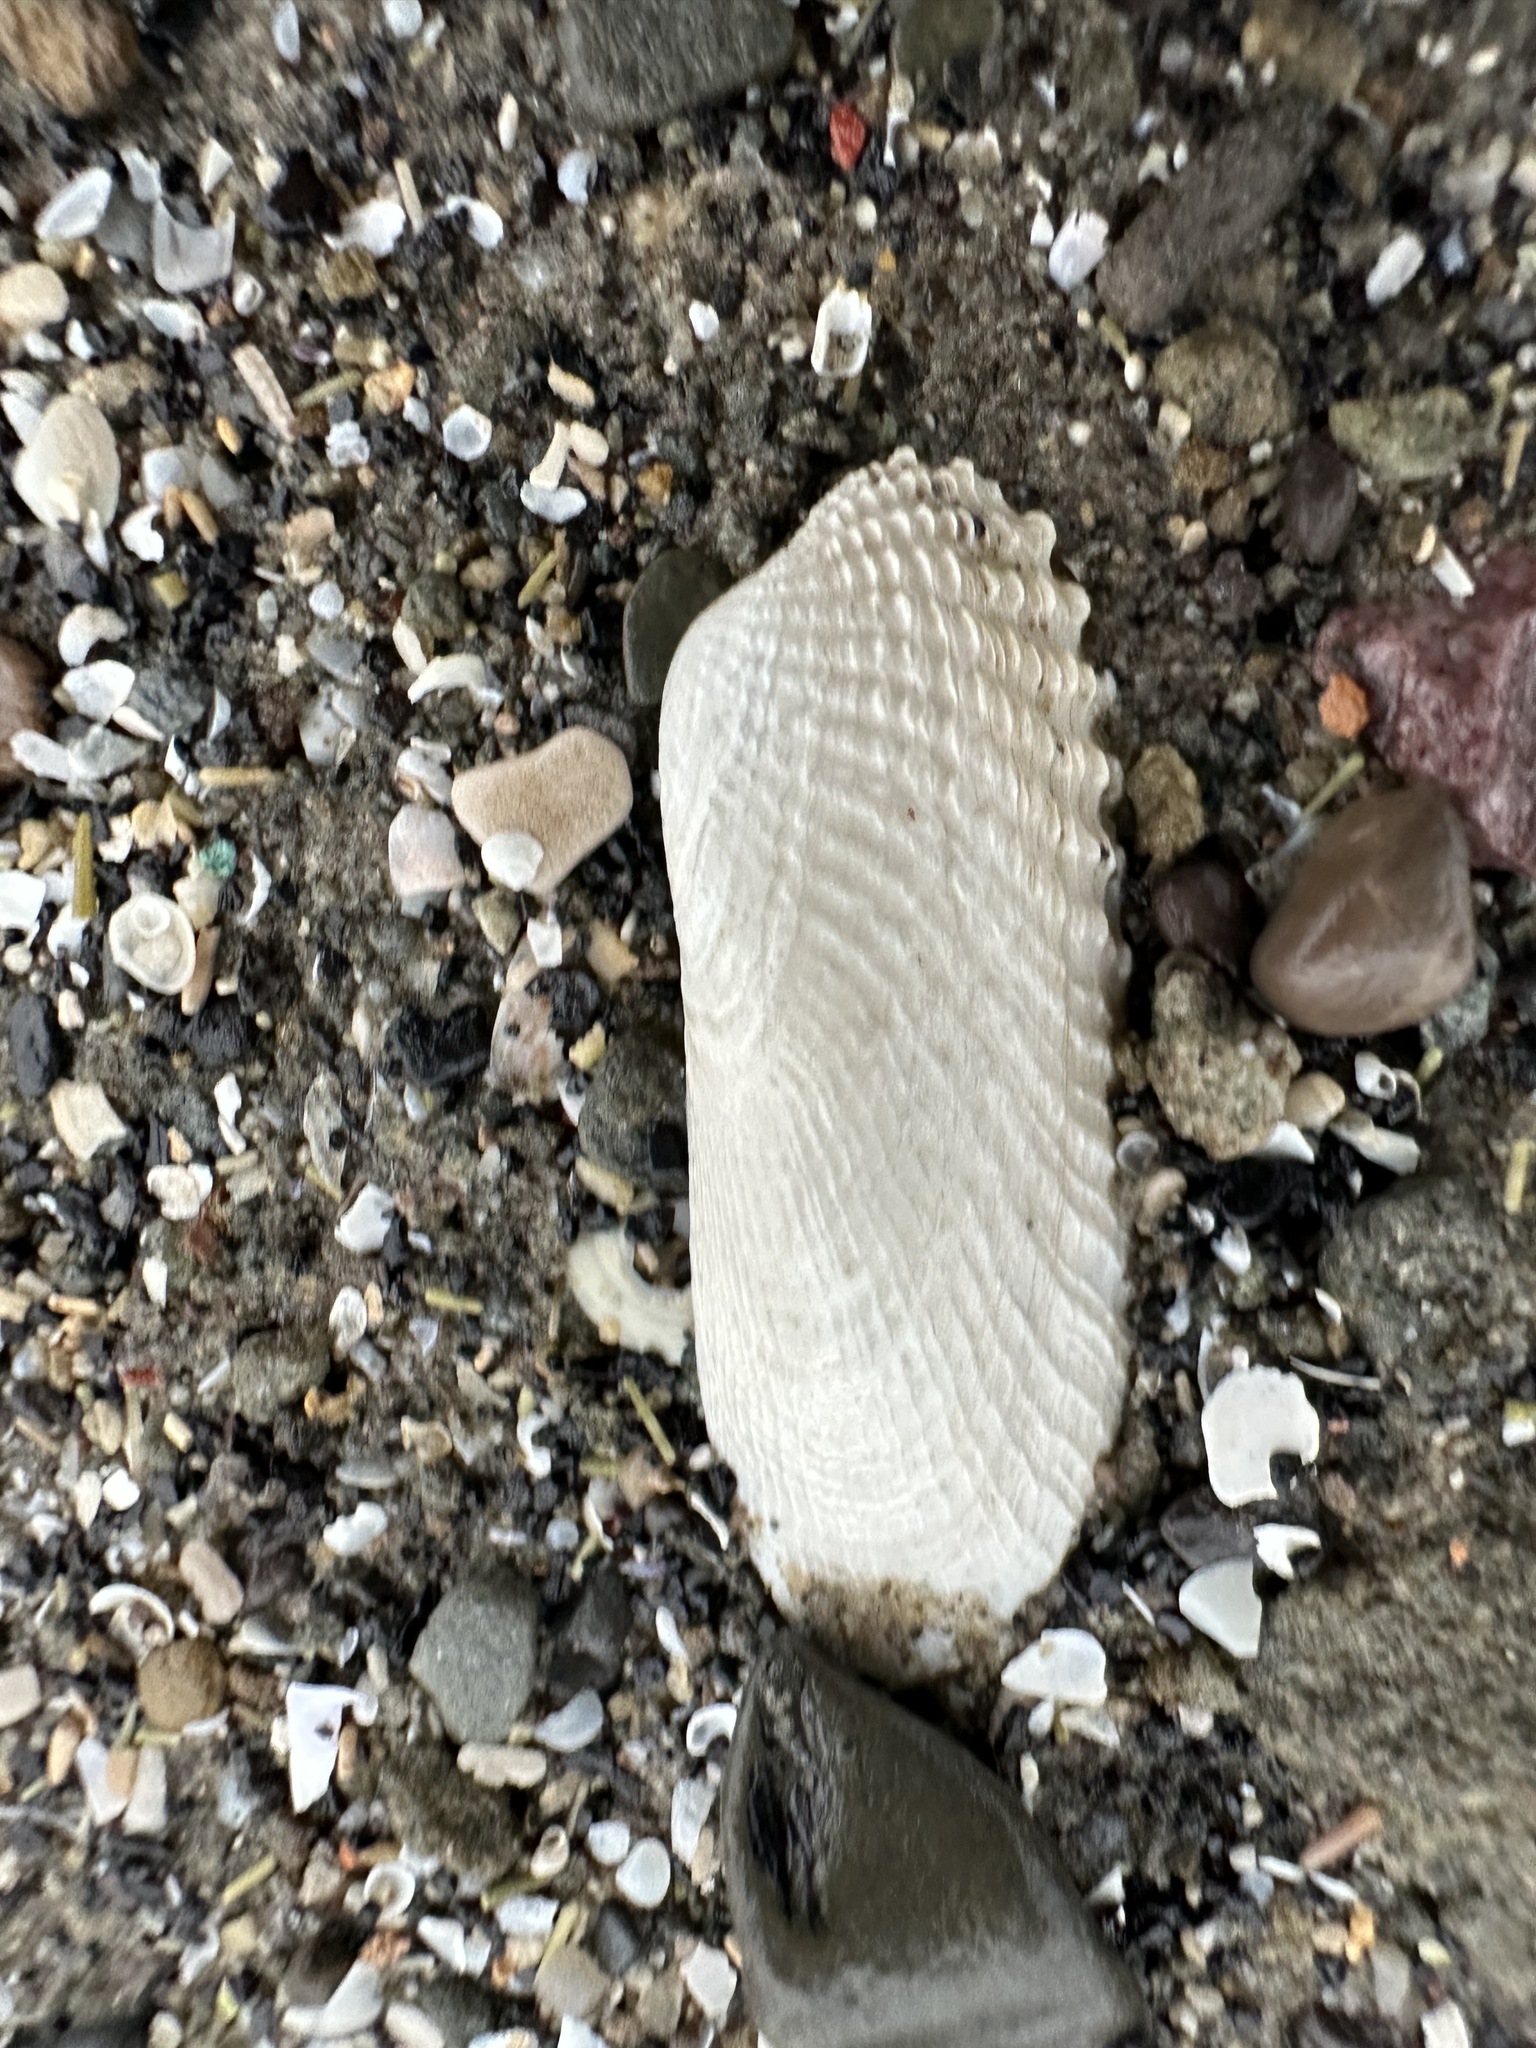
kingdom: Animalia
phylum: Mollusca
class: Bivalvia
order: Venerida
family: Veneridae
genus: Petricolaria
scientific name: Petricolaria pholadiformis
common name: American piddock
